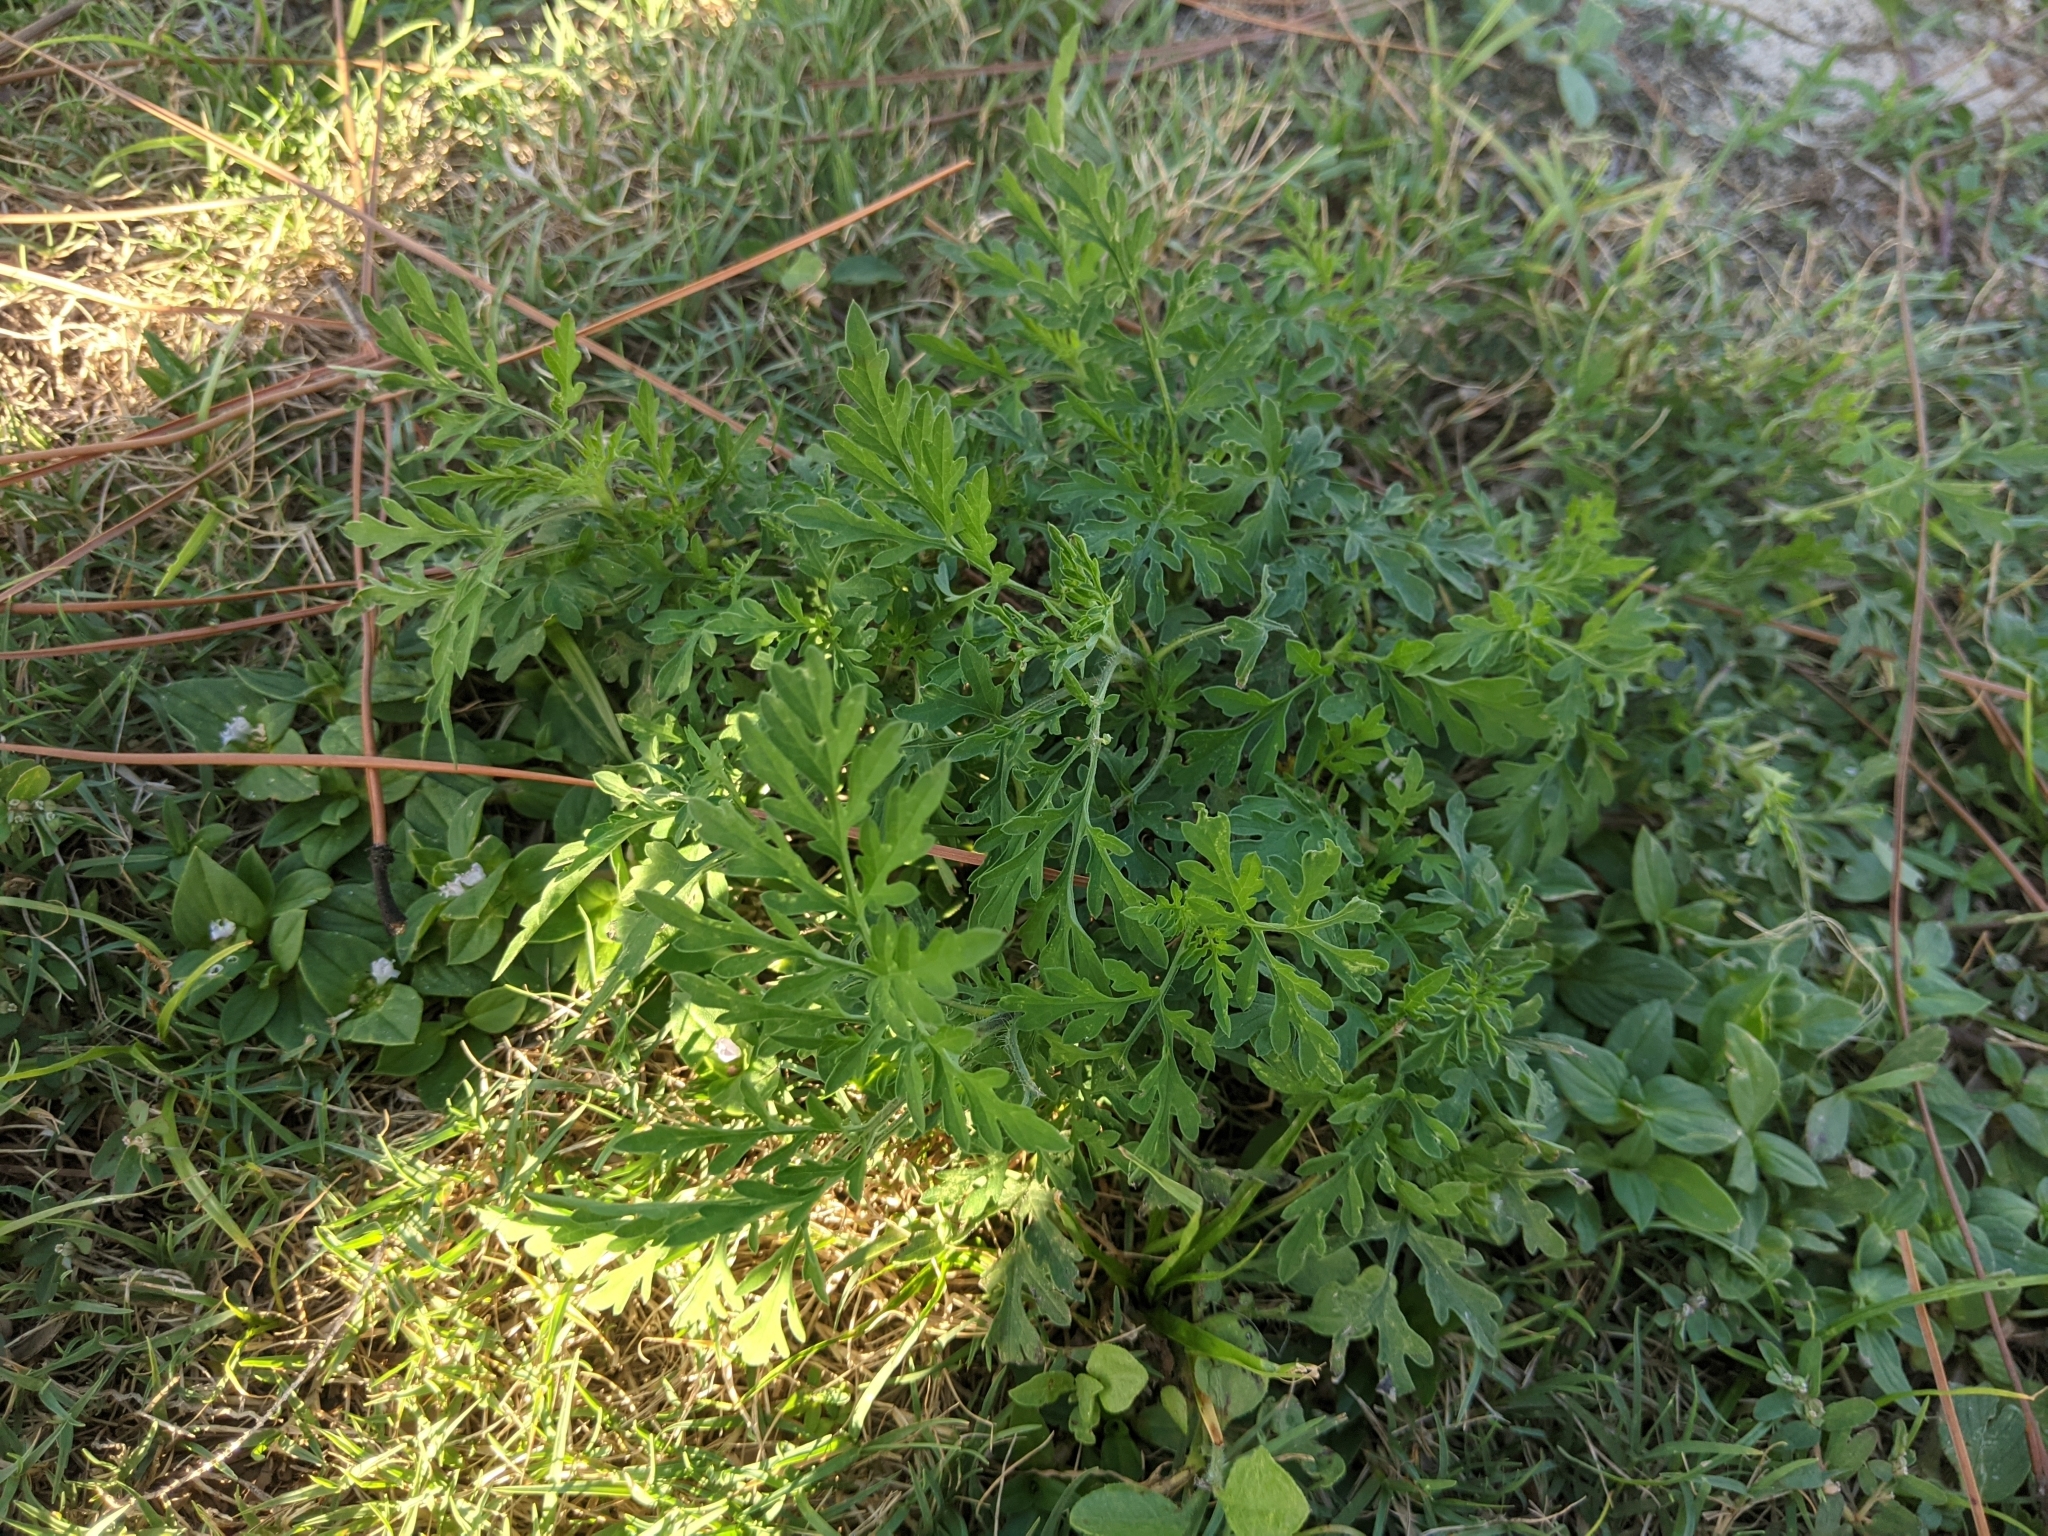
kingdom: Plantae
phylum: Tracheophyta
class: Magnoliopsida
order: Asterales
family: Asteraceae
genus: Ambrosia
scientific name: Ambrosia artemisiifolia
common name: Annual ragweed
